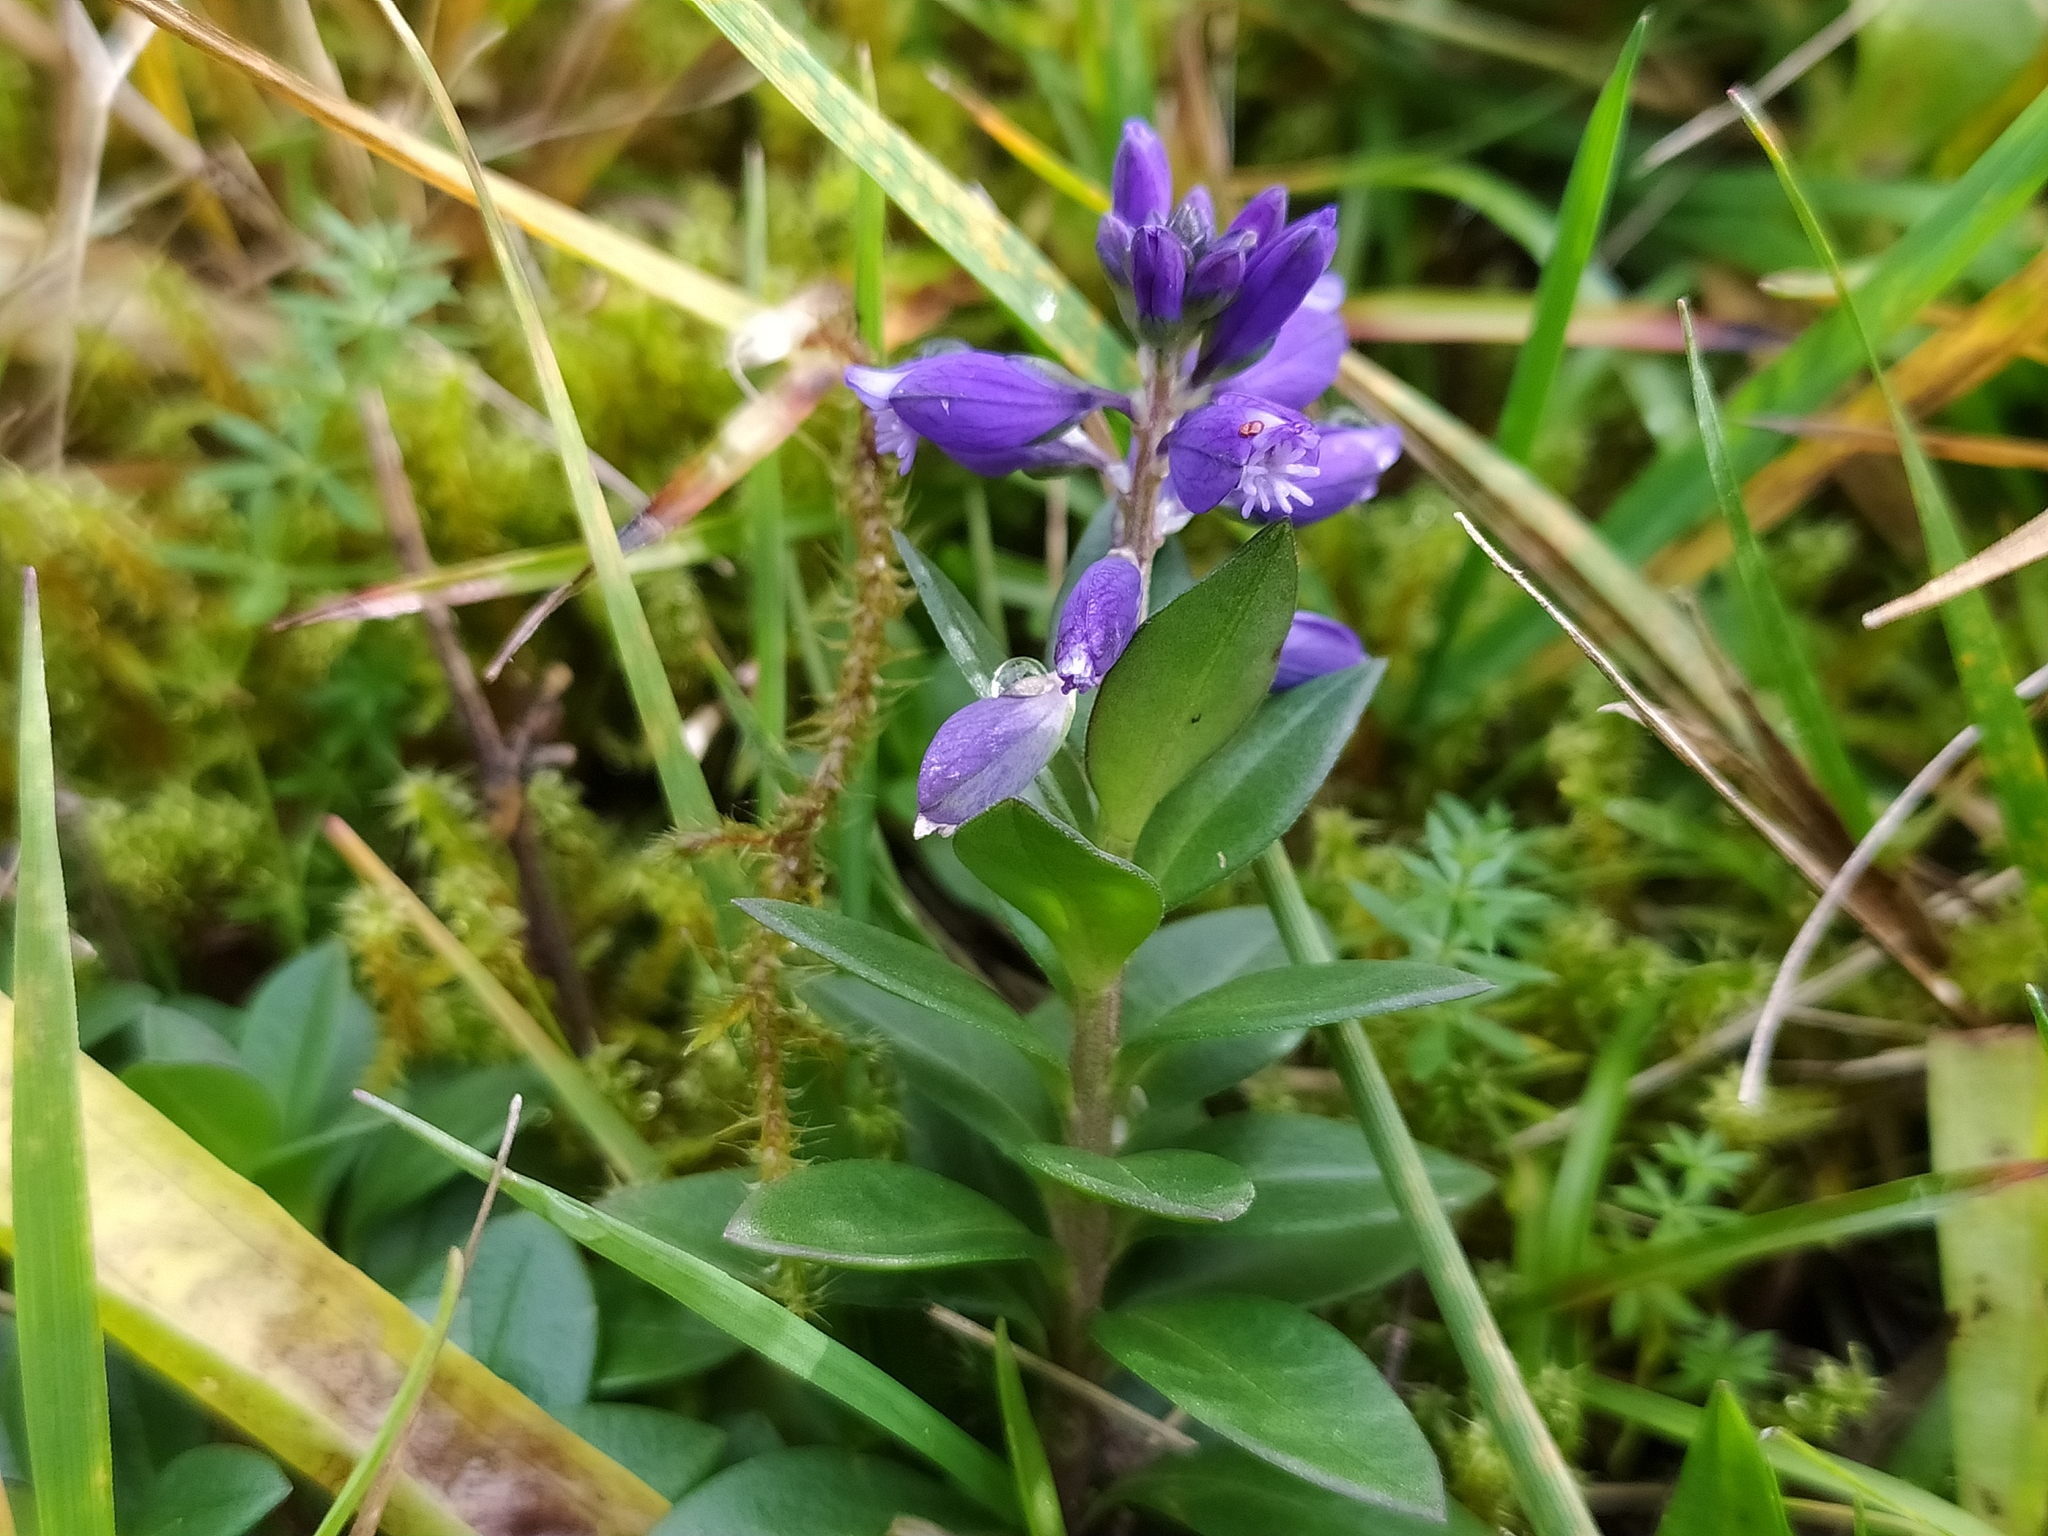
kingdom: Plantae
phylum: Tracheophyta
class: Magnoliopsida
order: Fabales
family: Polygalaceae
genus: Polygala
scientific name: Polygala vulgaris
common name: Common milkwort
